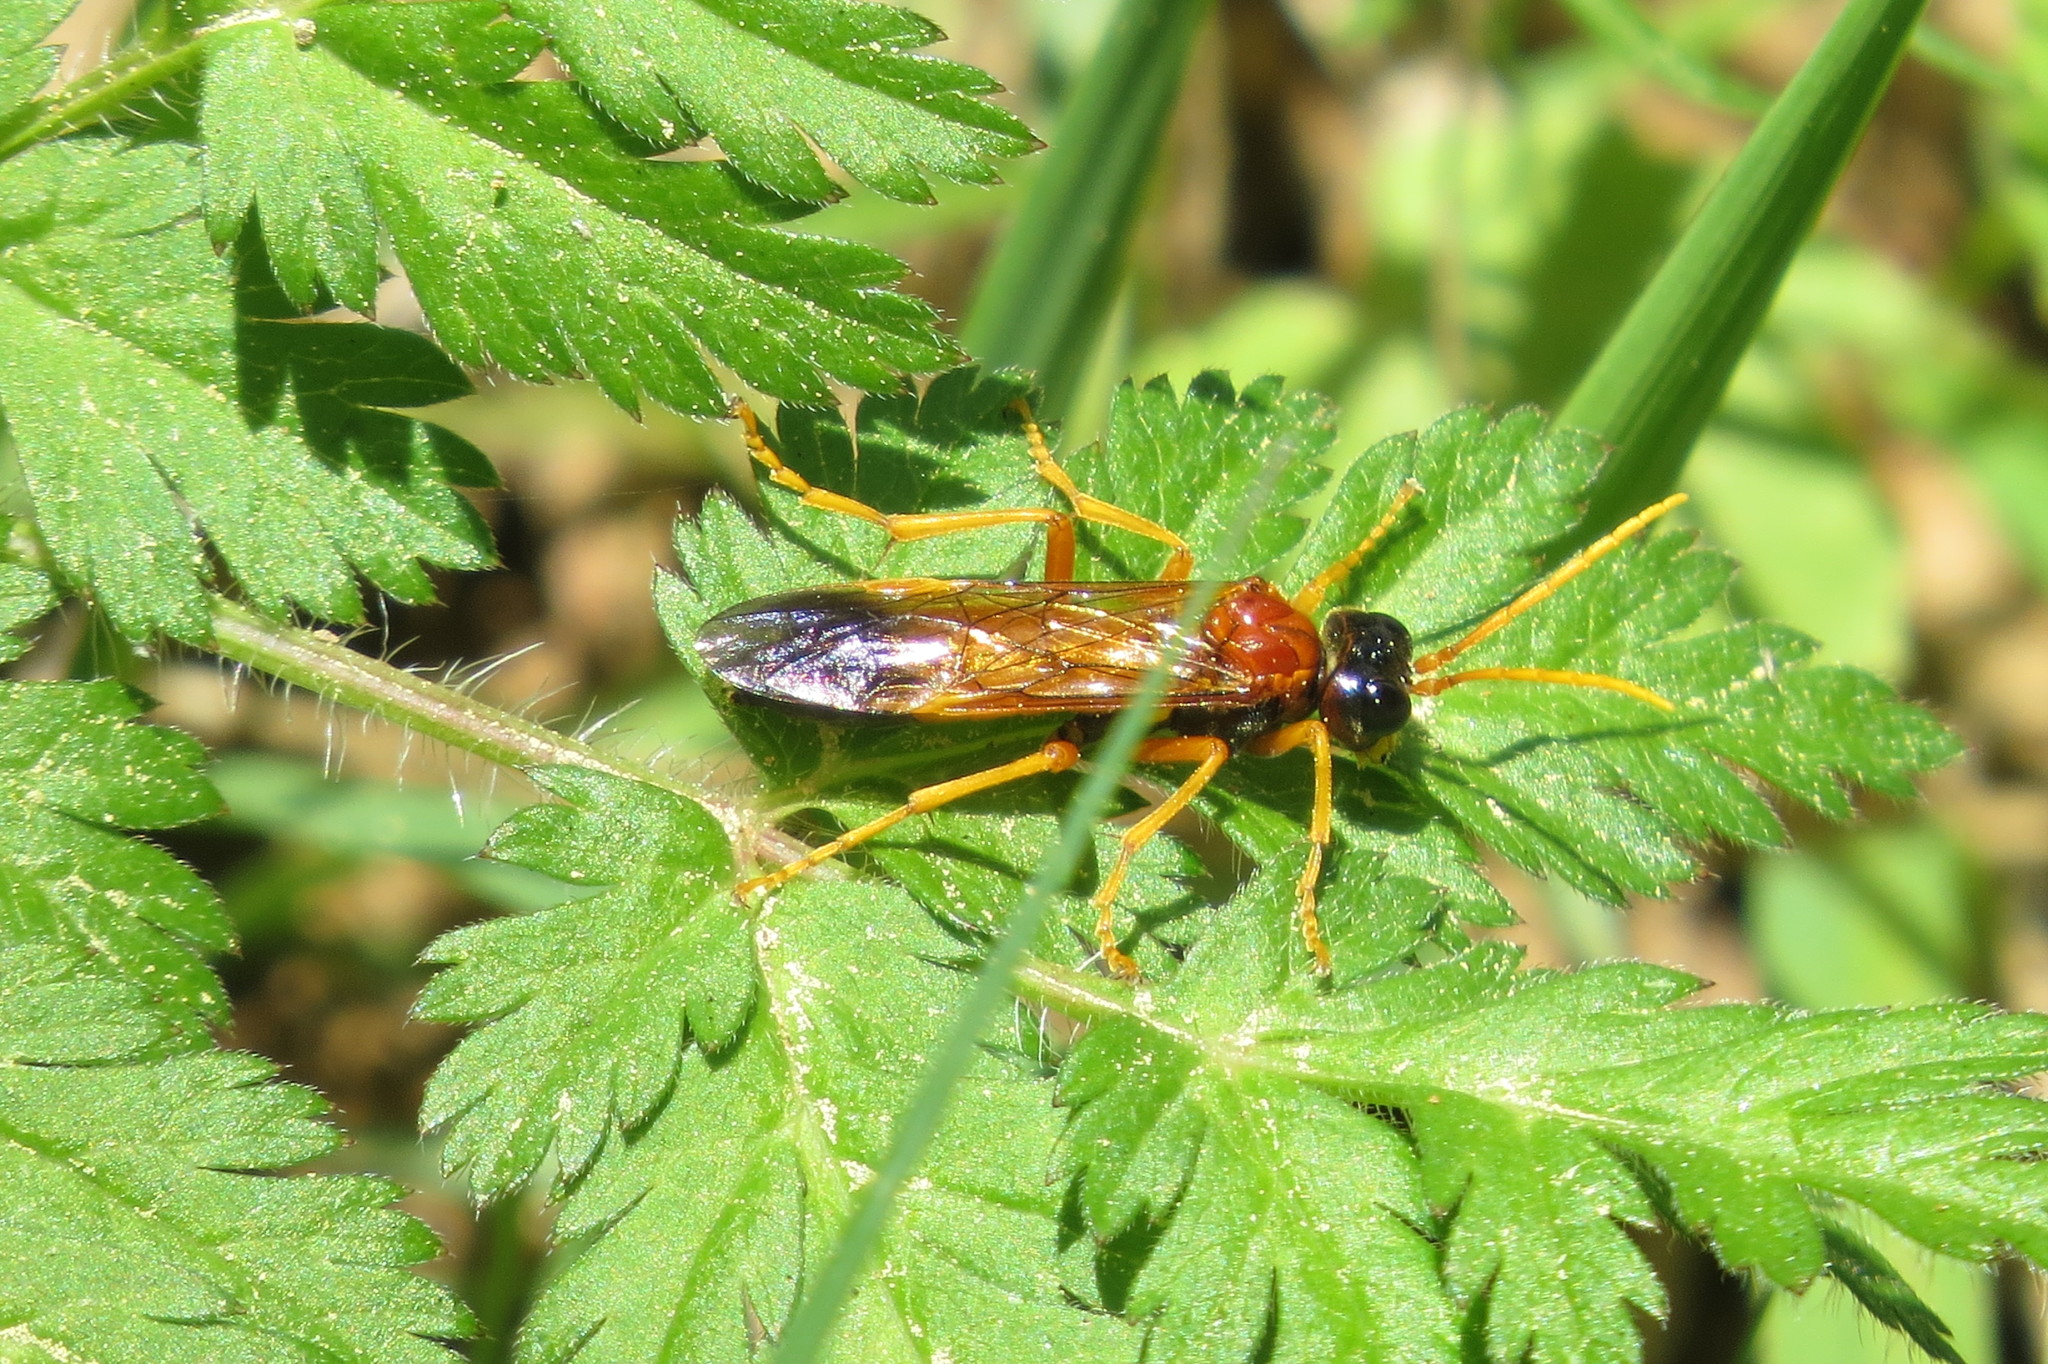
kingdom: Animalia
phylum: Arthropoda
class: Insecta
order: Hymenoptera
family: Tenthredinidae
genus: Tenthredo
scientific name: Tenthredo campestris
